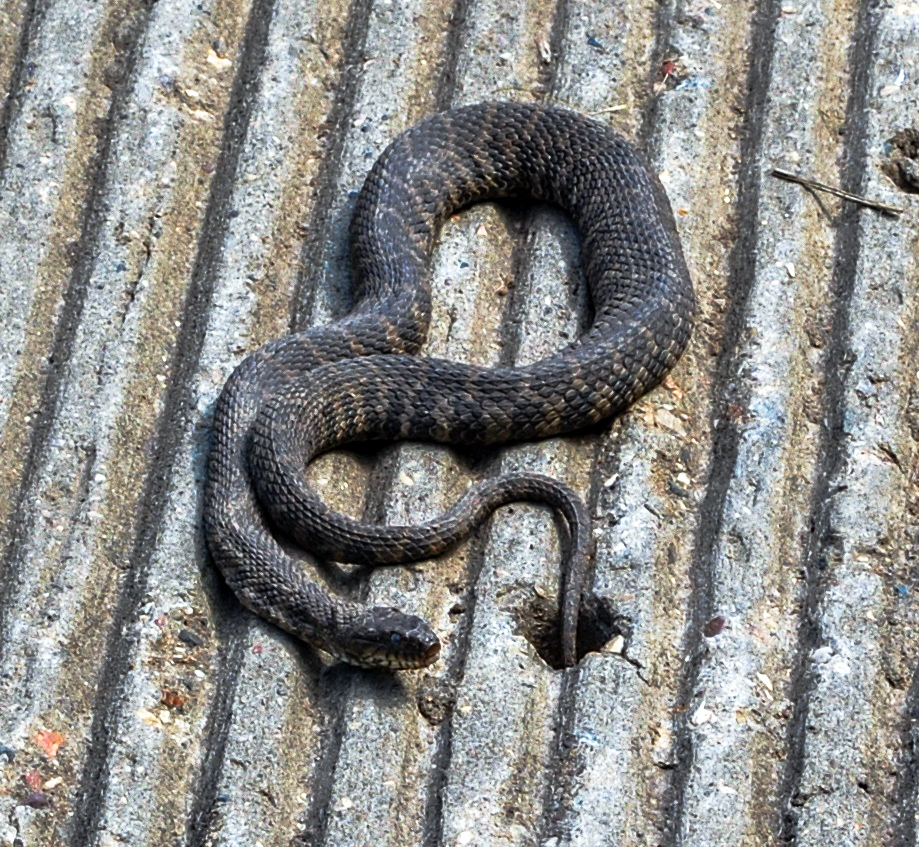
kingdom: Animalia
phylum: Chordata
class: Squamata
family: Colubridae
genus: Nerodia
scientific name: Nerodia sipedon
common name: Northern water snake
